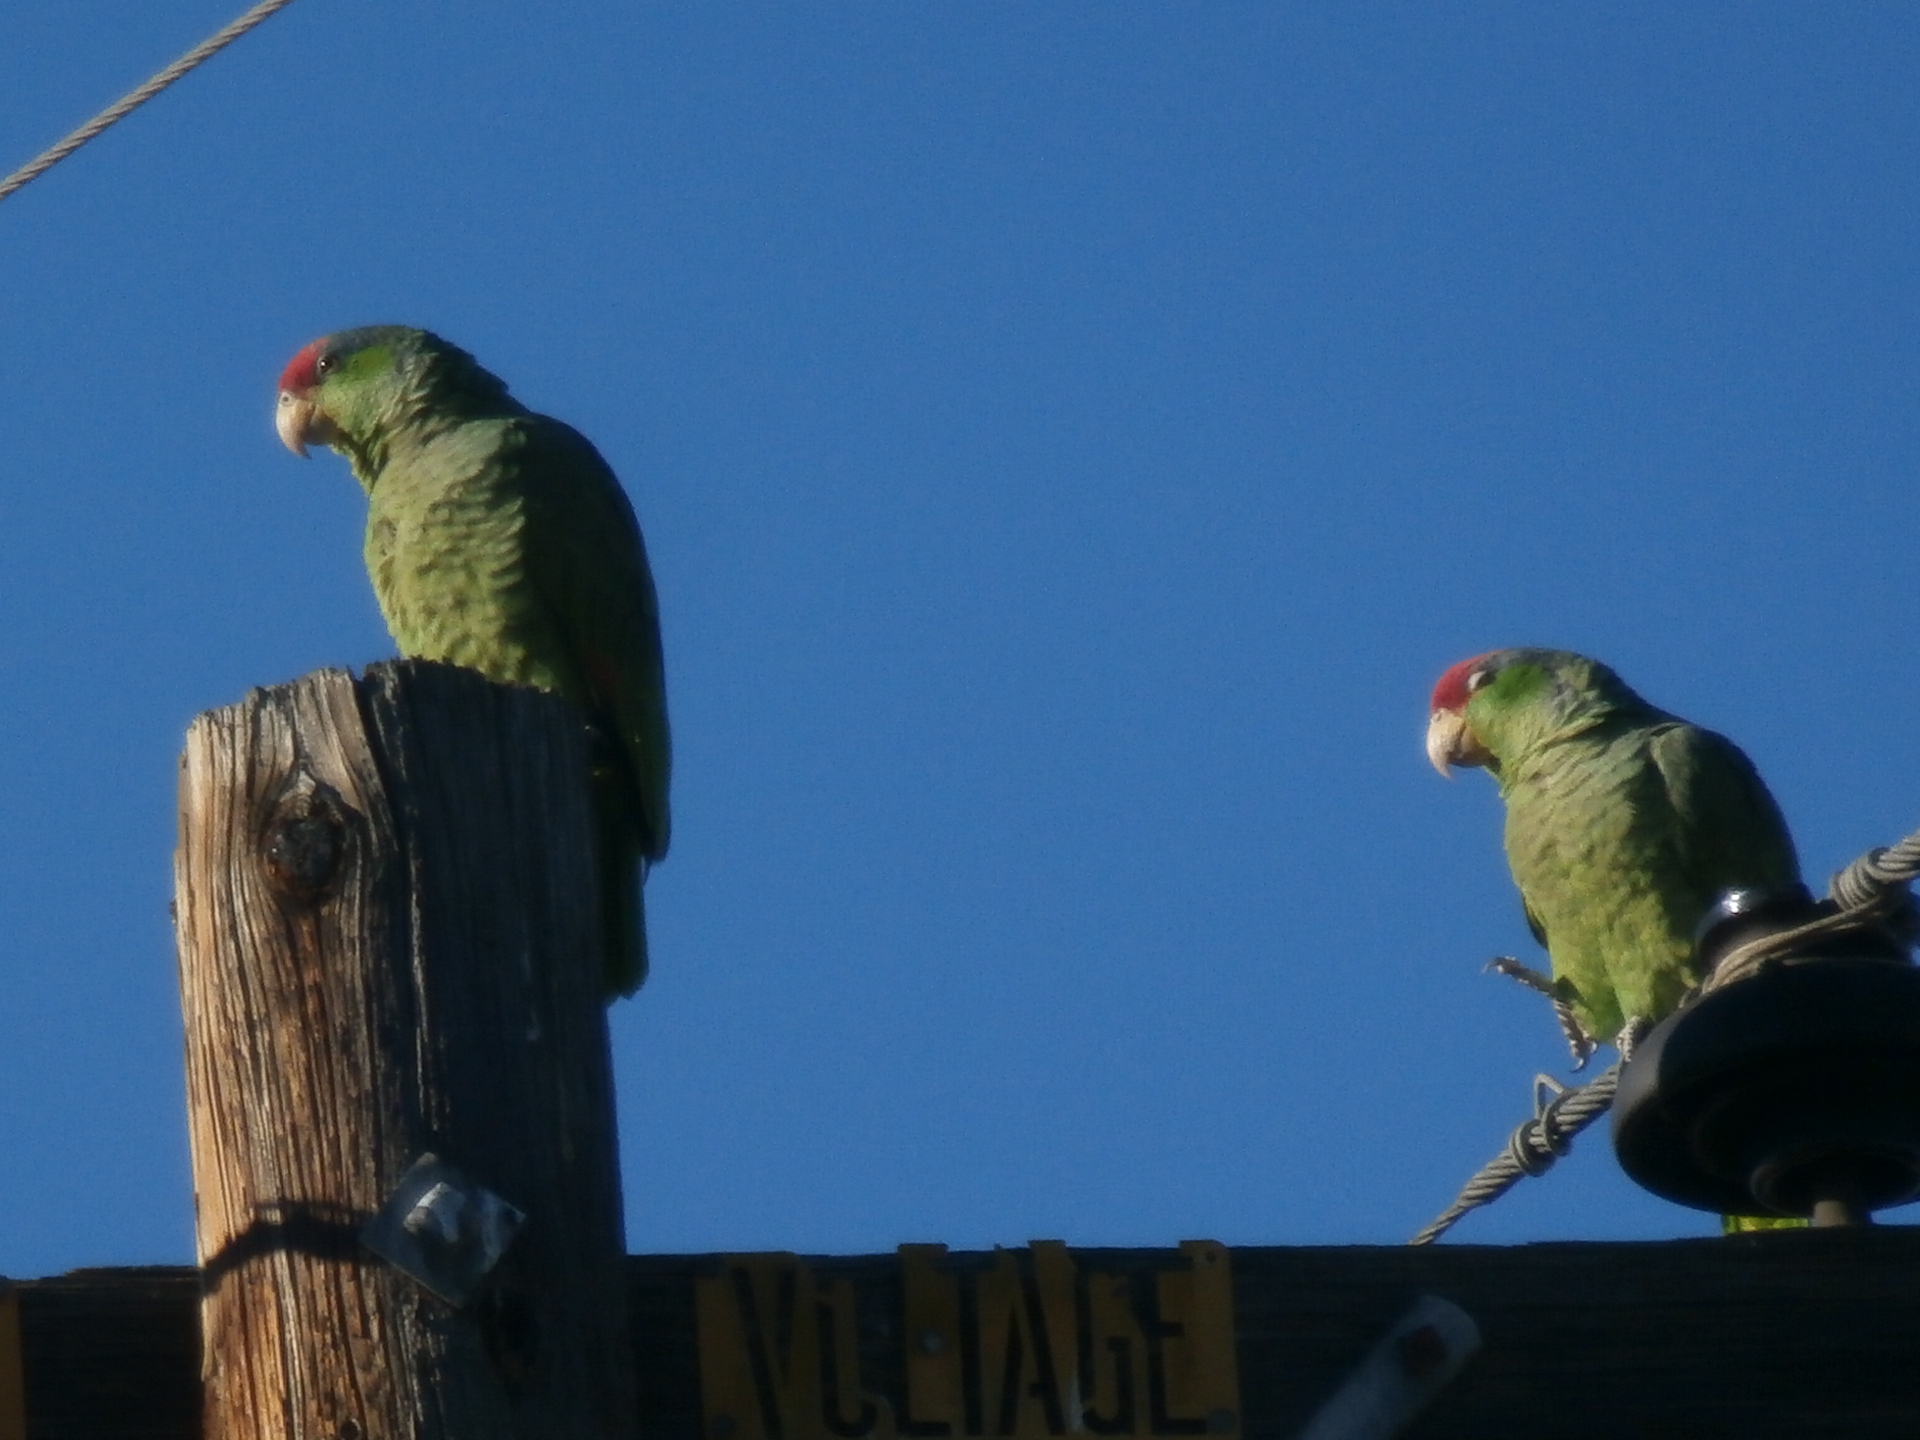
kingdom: Animalia
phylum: Chordata
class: Aves
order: Psittaciformes
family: Psittacidae
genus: Amazona
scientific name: Amazona viridigenalis
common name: Red-crowned amazon
